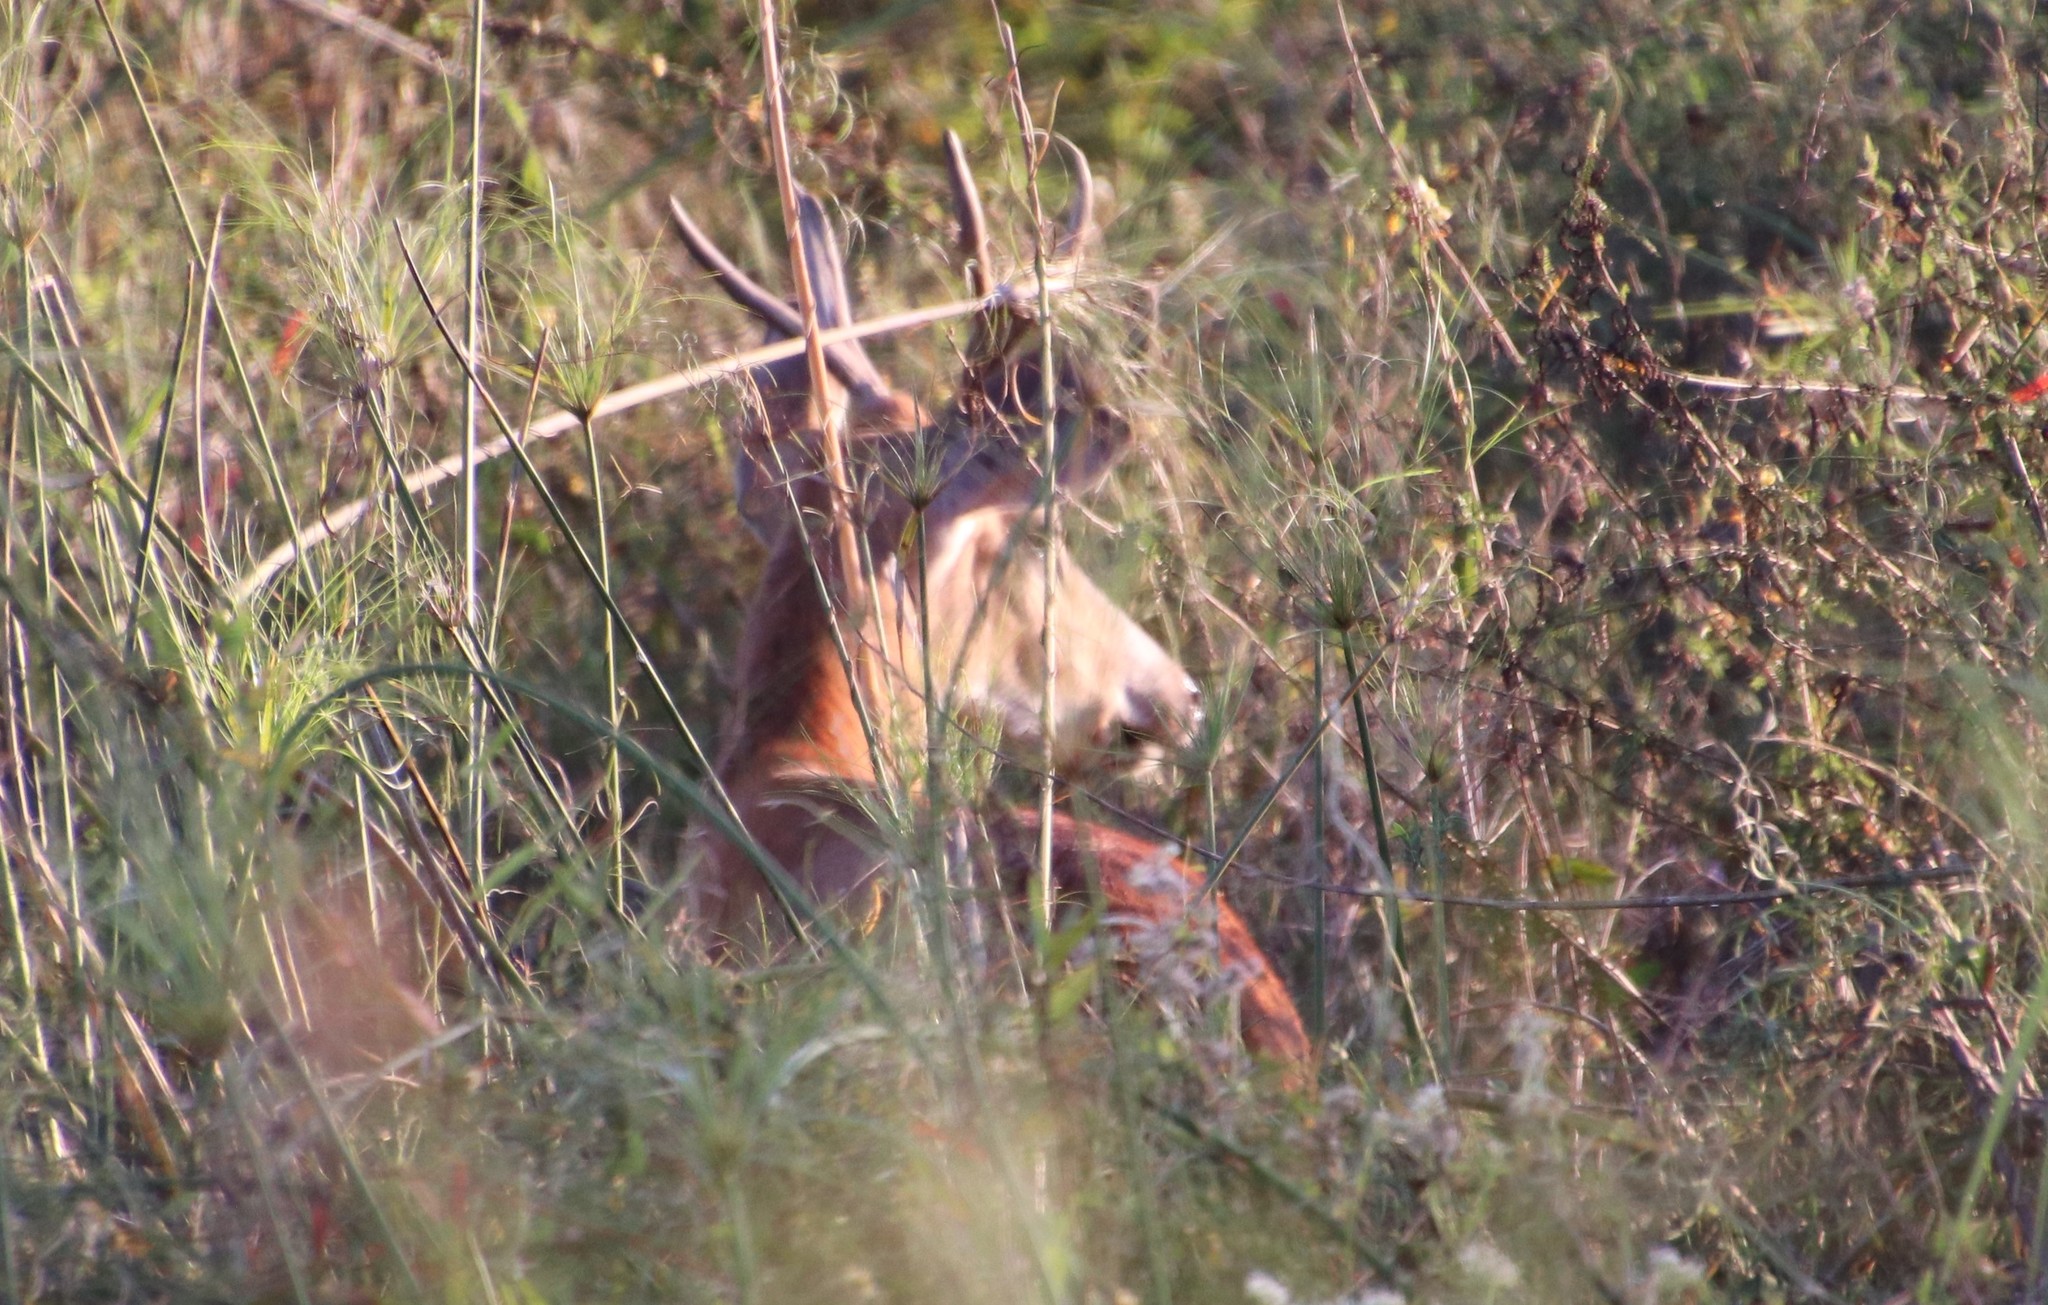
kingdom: Animalia
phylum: Chordata
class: Mammalia
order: Artiodactyla
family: Cervidae
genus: Blastocerus
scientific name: Blastocerus dichotomus
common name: Marsh deer
